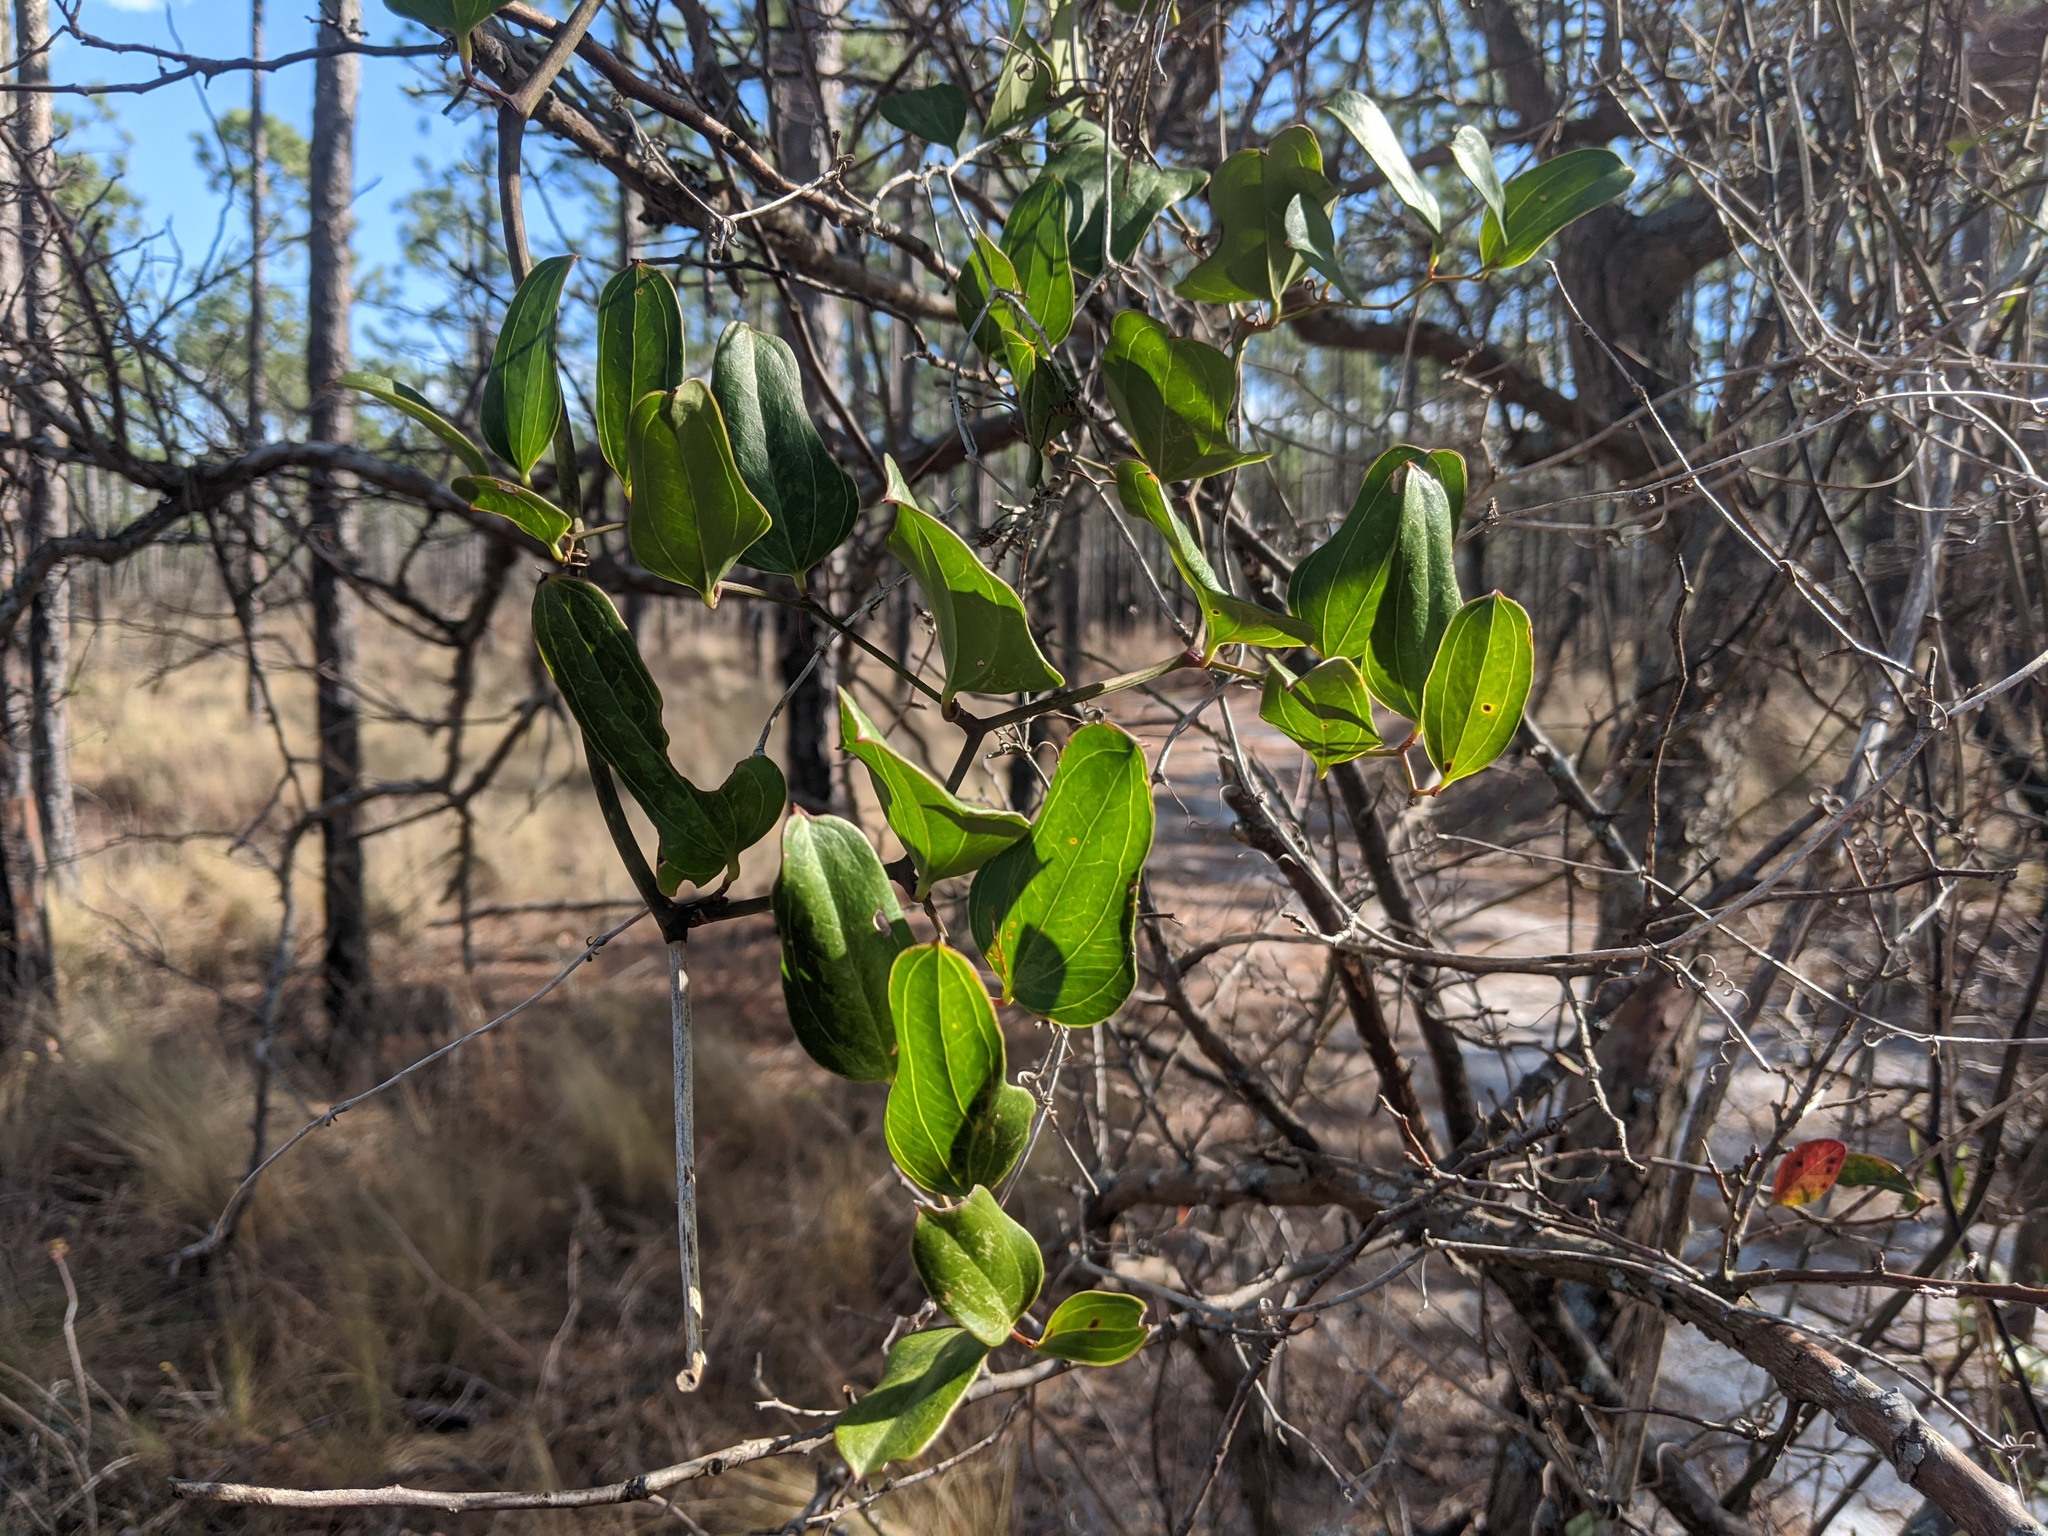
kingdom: Plantae
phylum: Tracheophyta
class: Liliopsida
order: Liliales
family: Smilacaceae
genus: Smilax
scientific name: Smilax auriculata
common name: Wild bamboo
